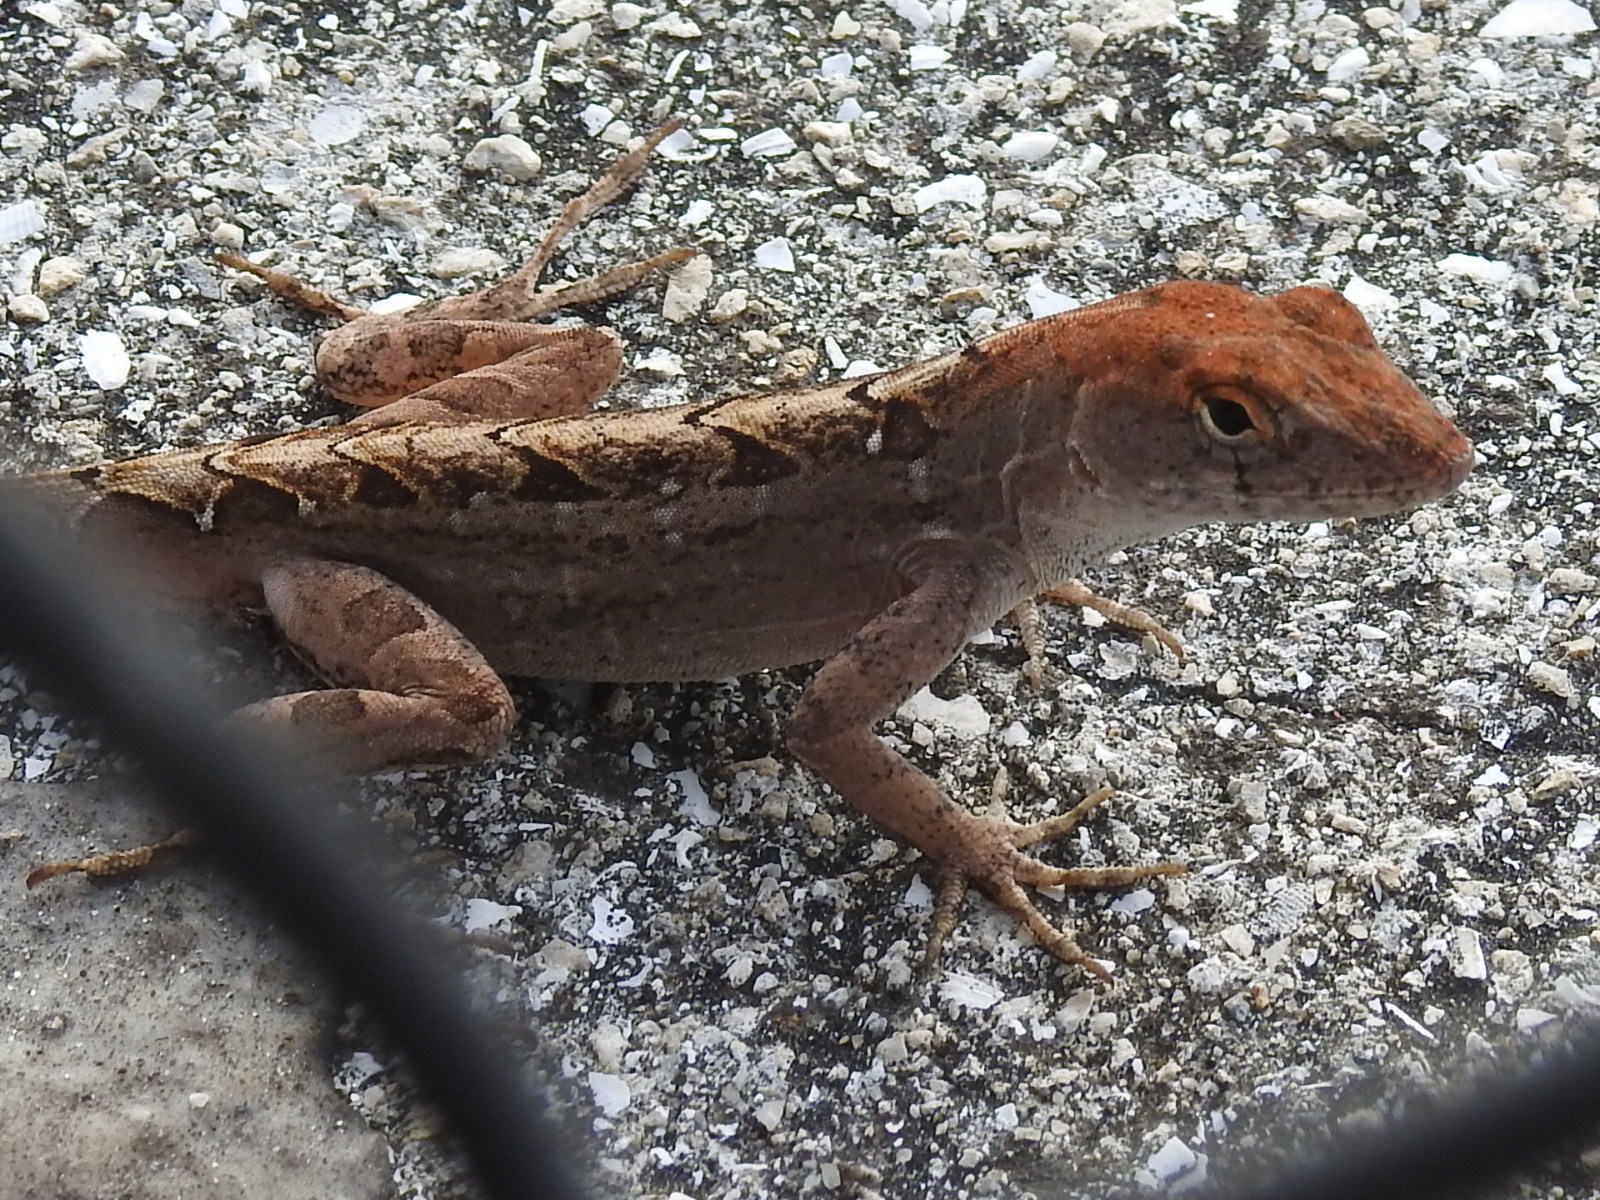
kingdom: Animalia
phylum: Chordata
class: Squamata
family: Dactyloidae
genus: Anolis
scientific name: Anolis sagrei
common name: Brown anole
